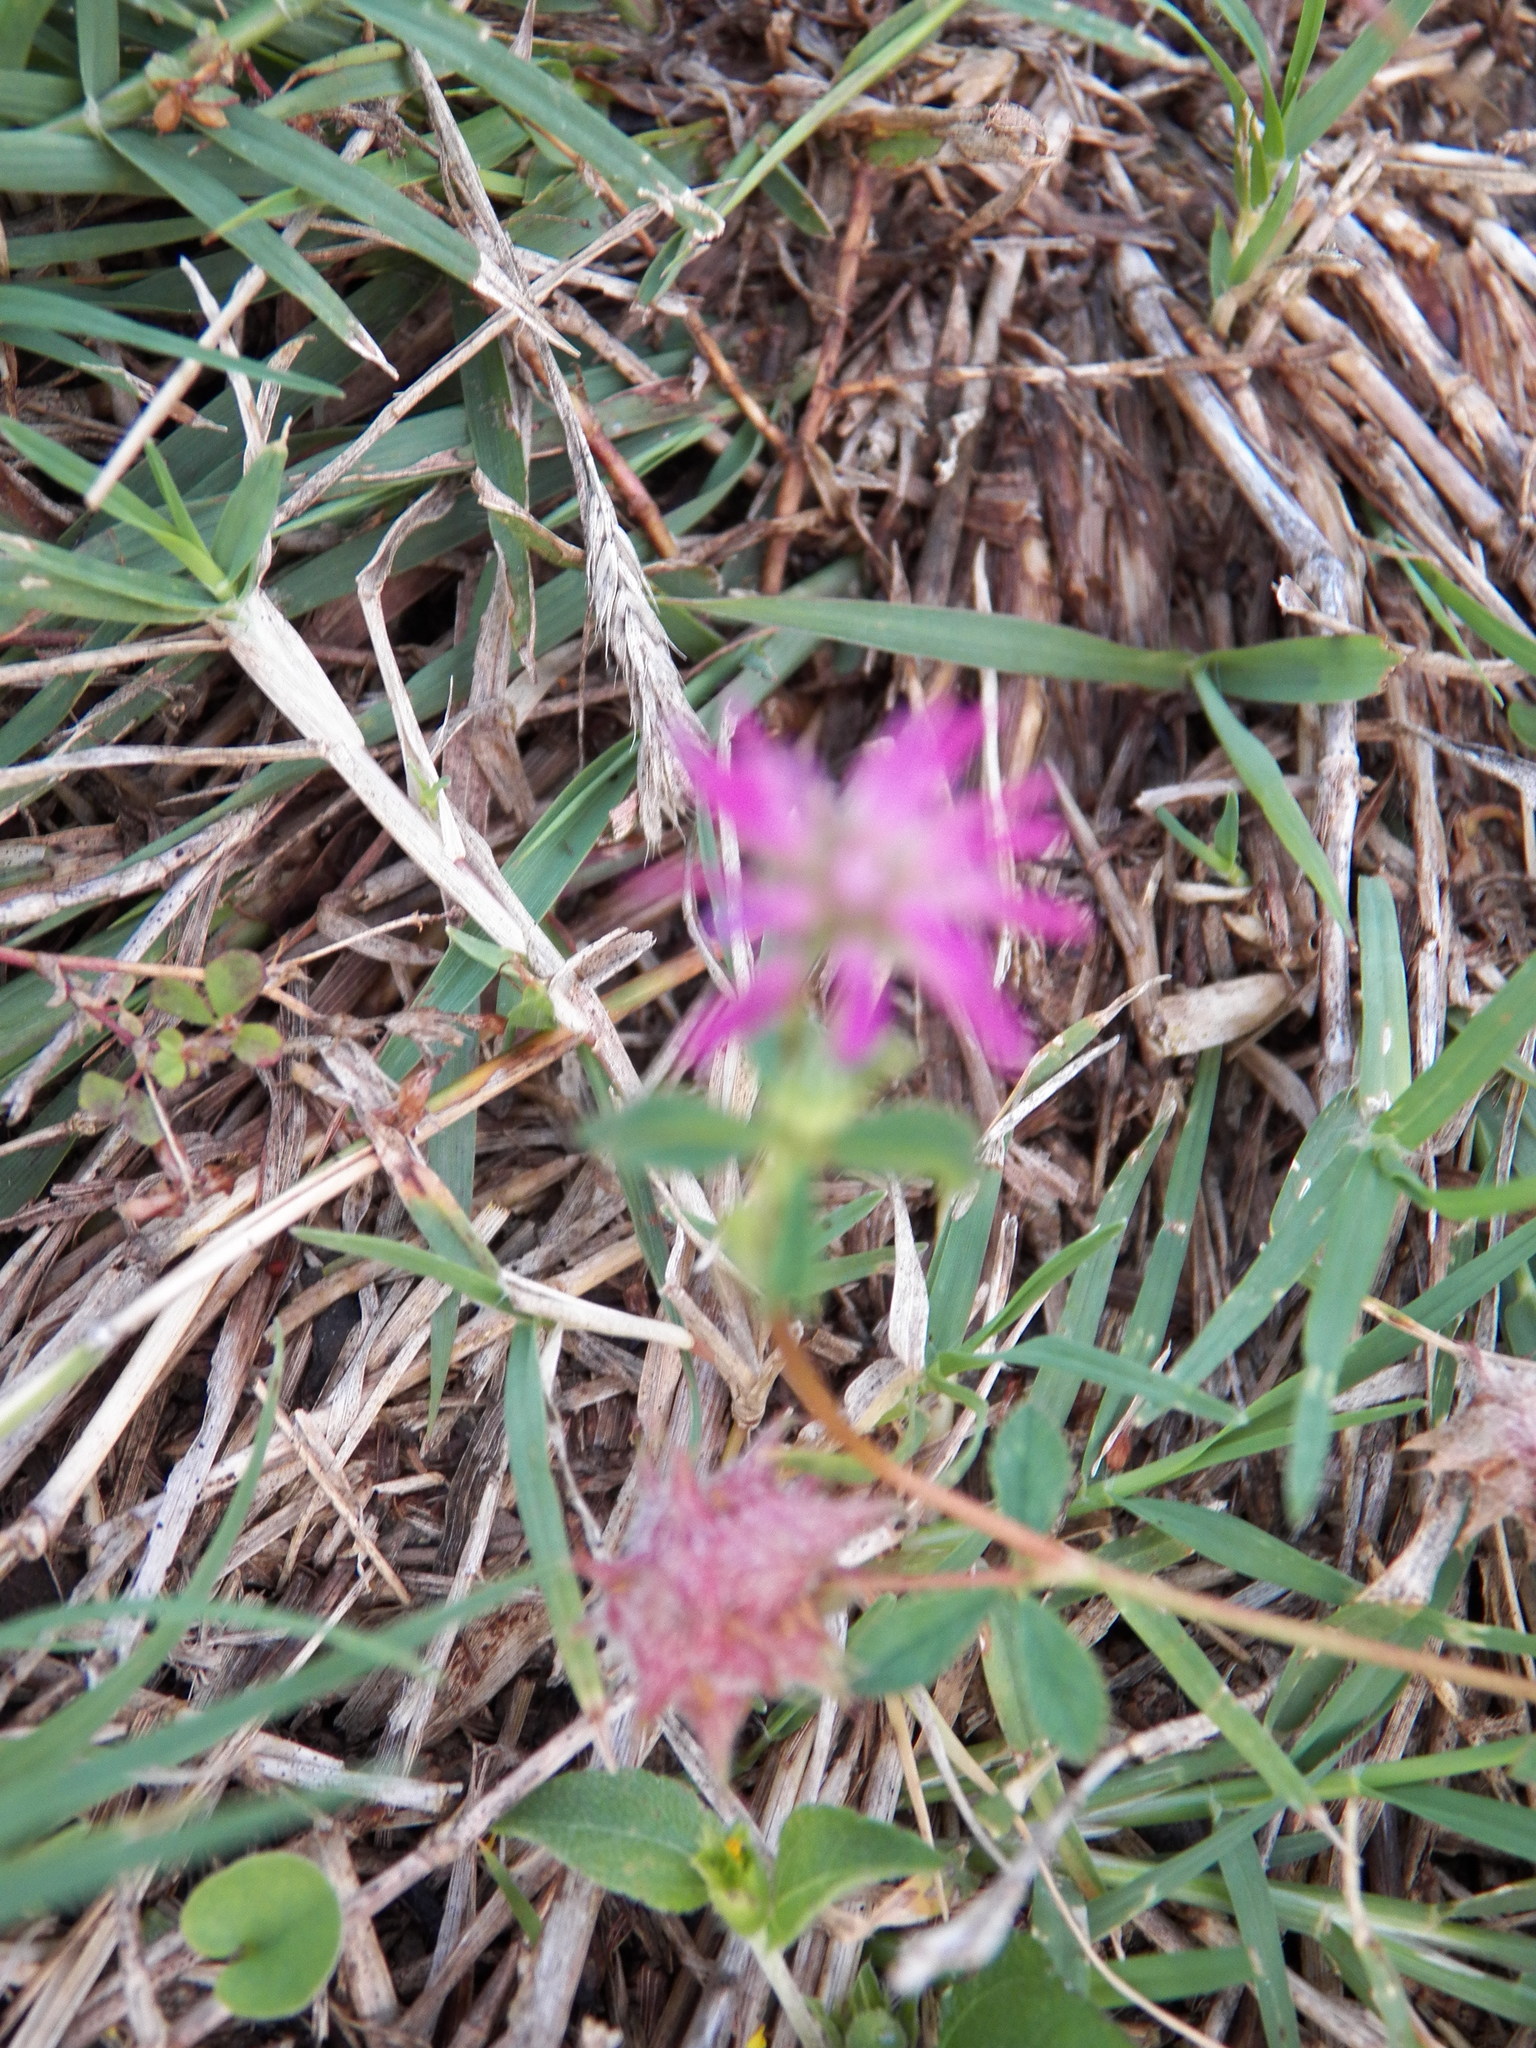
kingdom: Plantae
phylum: Tracheophyta
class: Magnoliopsida
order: Fabales
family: Fabaceae
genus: Trifolium
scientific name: Trifolium resupinatum
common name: Reversed clover
